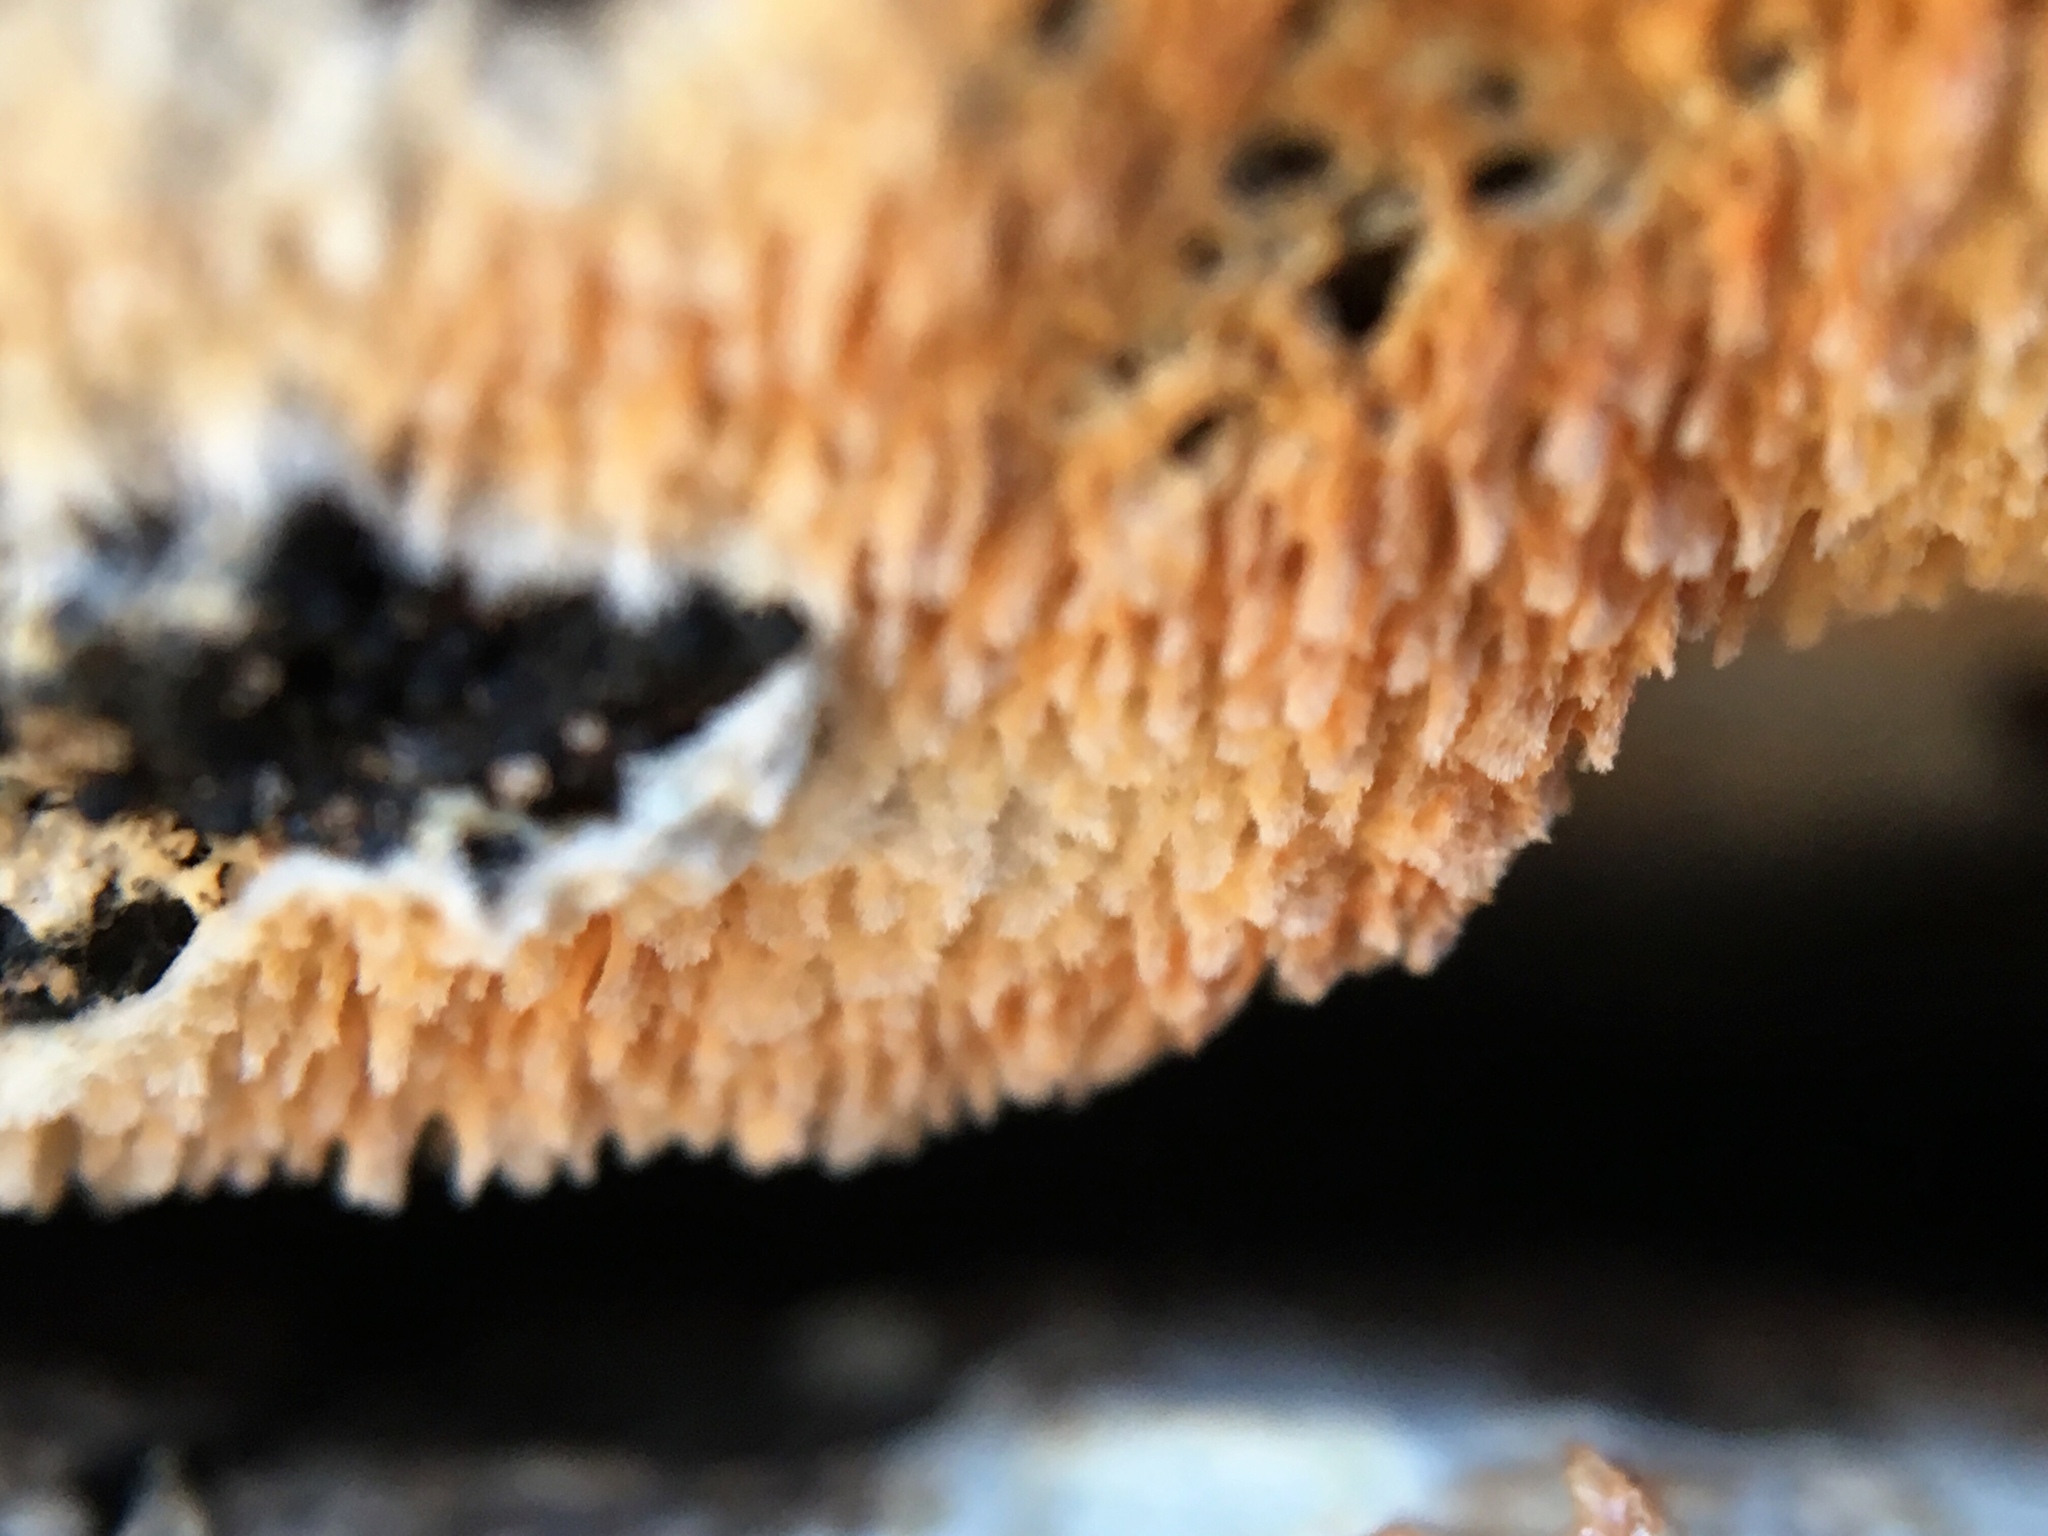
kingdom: Fungi
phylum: Basidiomycota
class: Agaricomycetes
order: Polyporales
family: Steccherinaceae
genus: Steccherinum
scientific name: Steccherinum ochraceum
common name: Ochre spreading tooth
